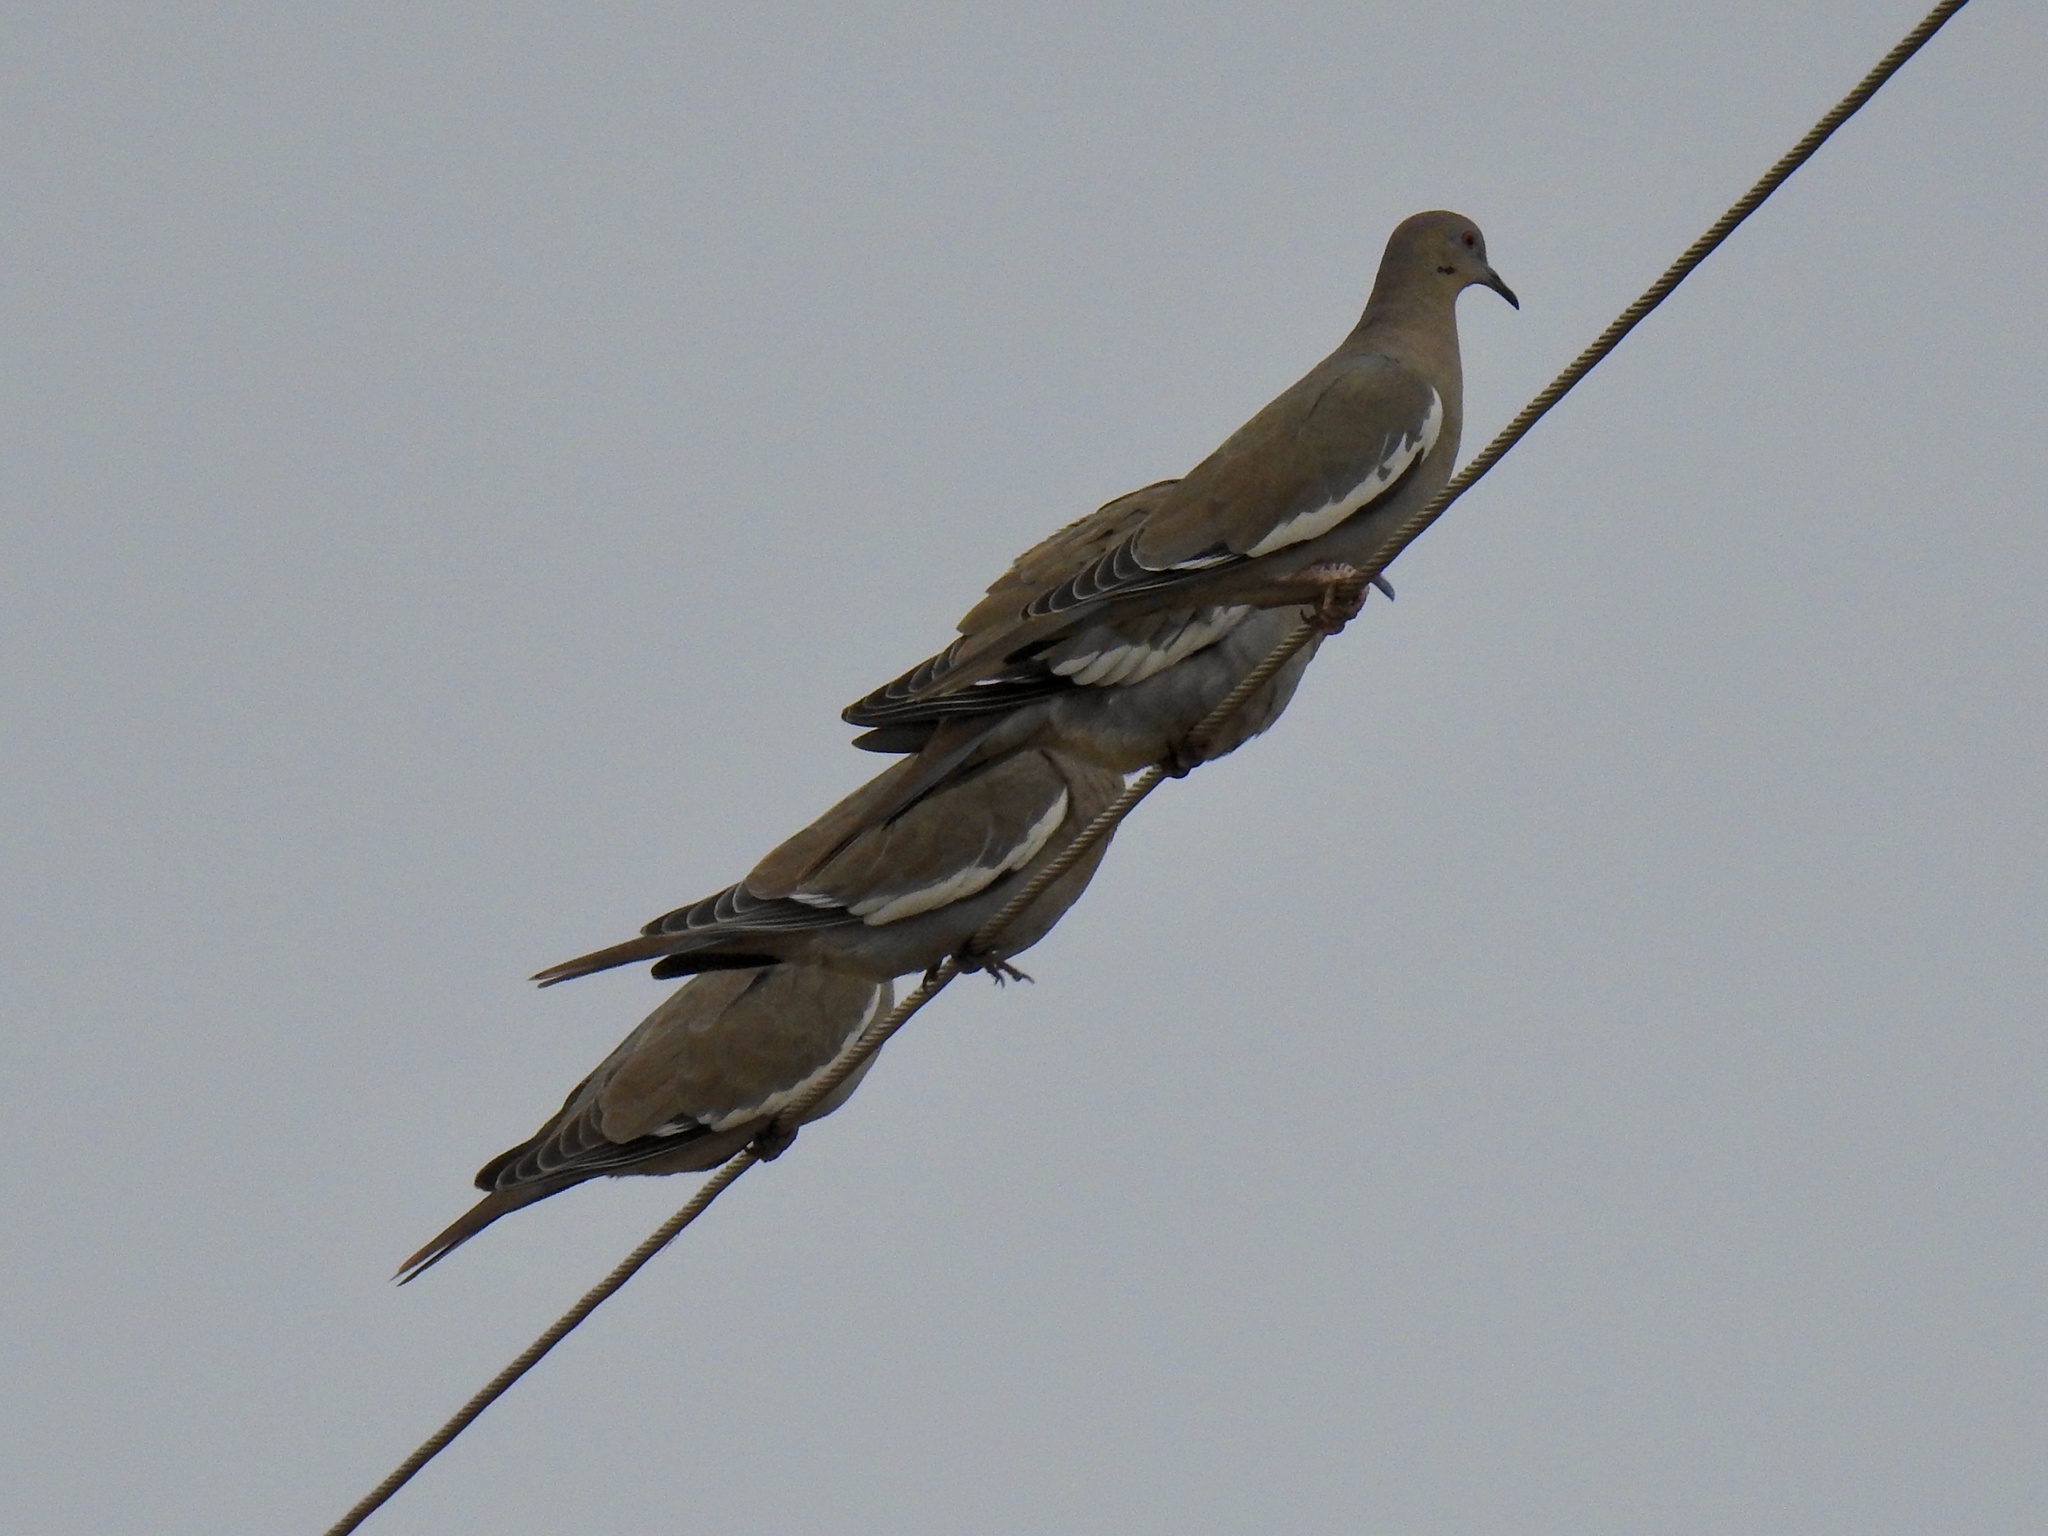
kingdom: Animalia
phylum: Chordata
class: Aves
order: Columbiformes
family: Columbidae
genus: Zenaida
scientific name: Zenaida asiatica
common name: White-winged dove
